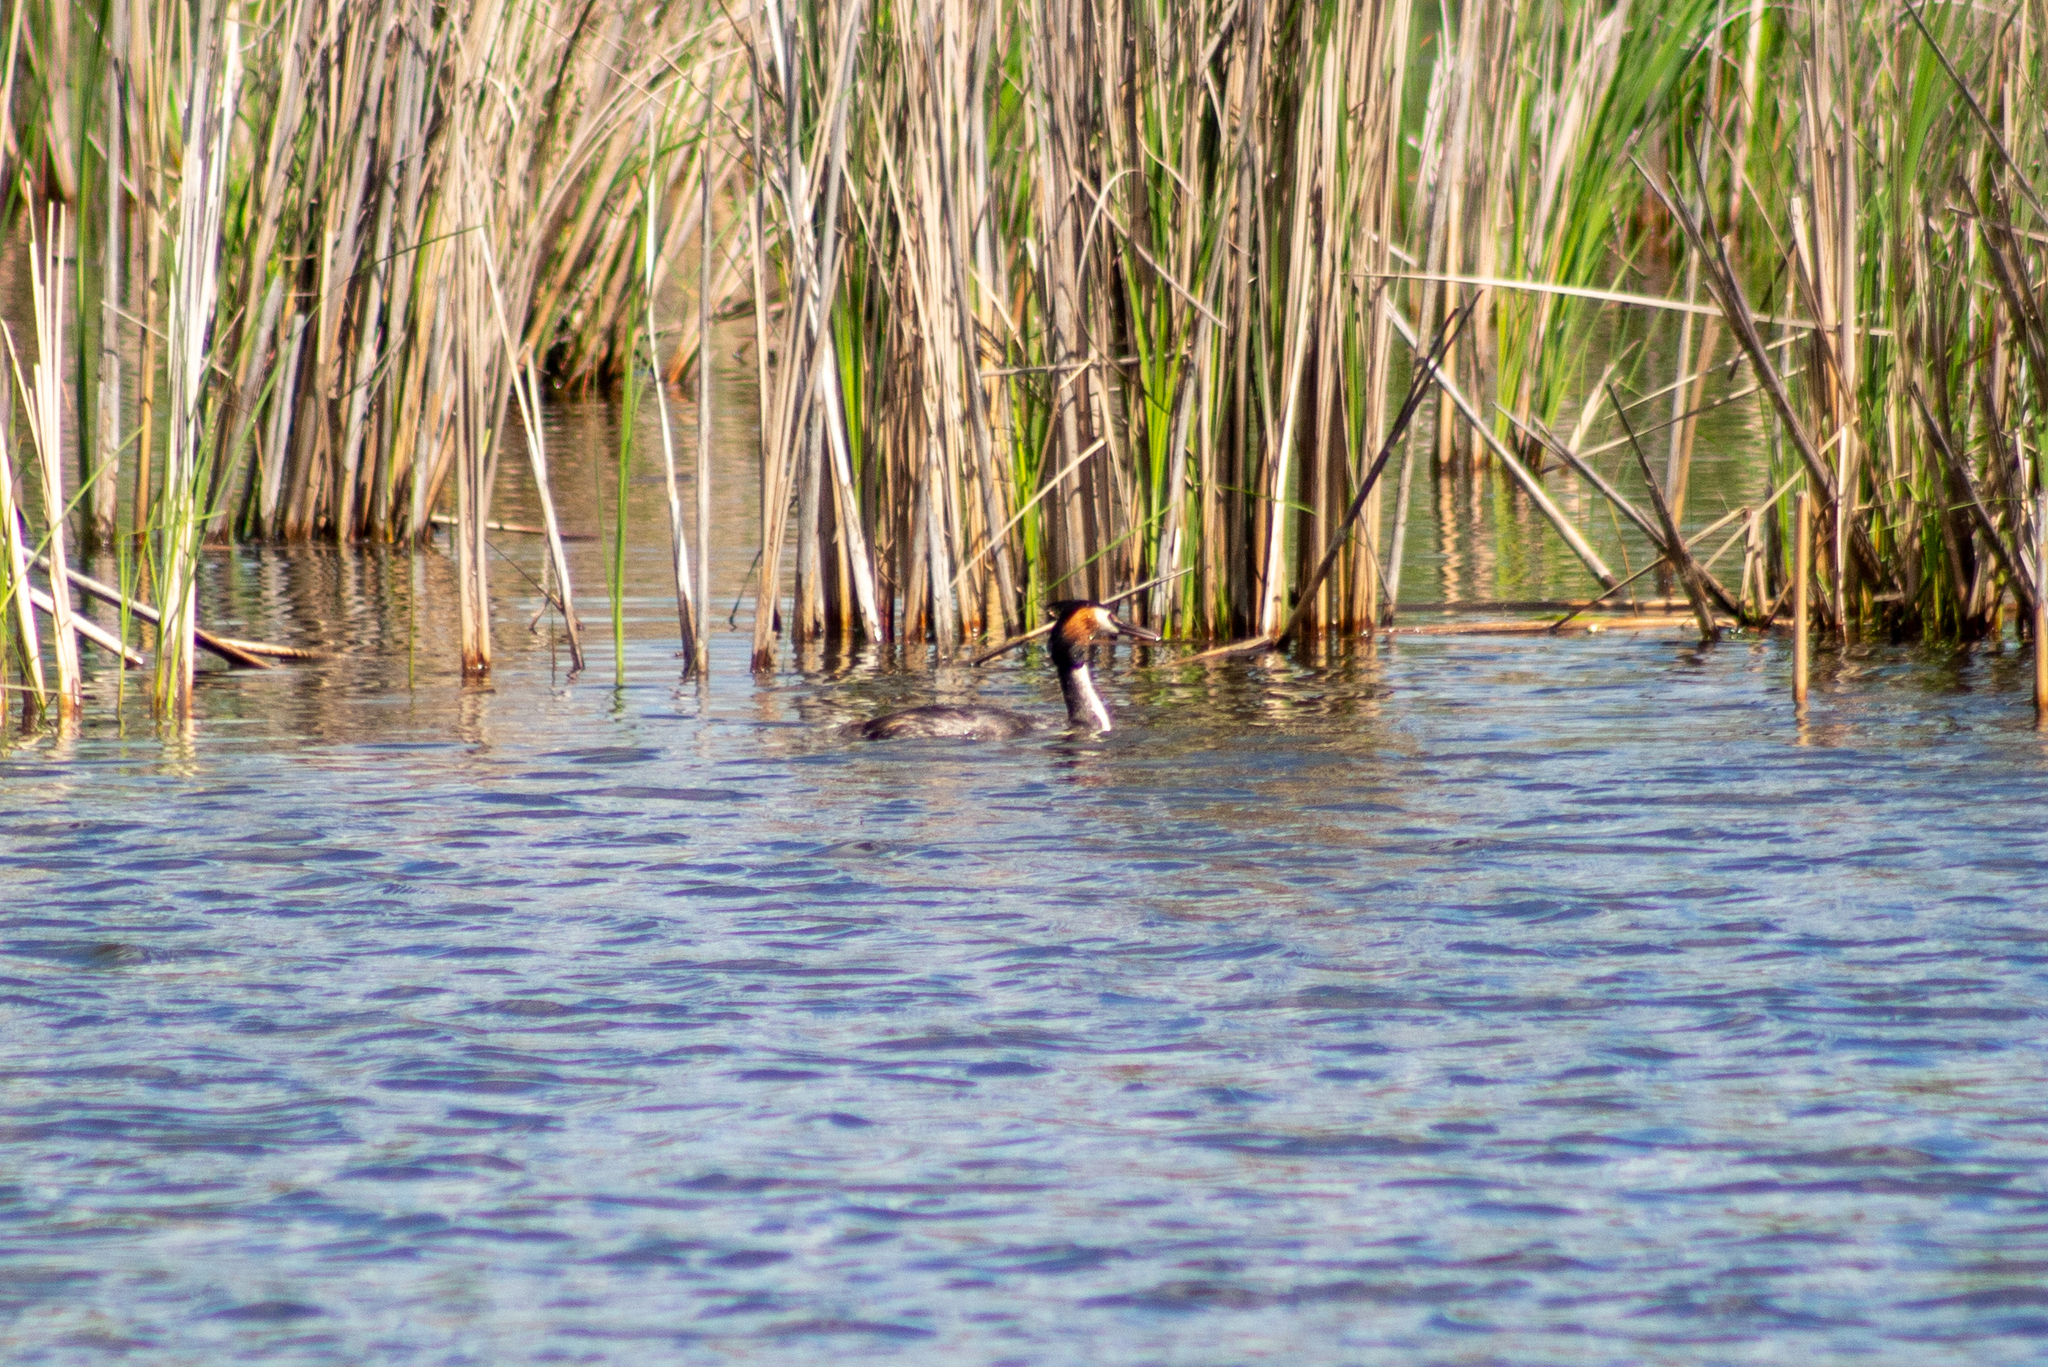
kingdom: Animalia
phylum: Chordata
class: Aves
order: Podicipediformes
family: Podicipedidae
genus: Podiceps
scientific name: Podiceps cristatus
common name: Great crested grebe
